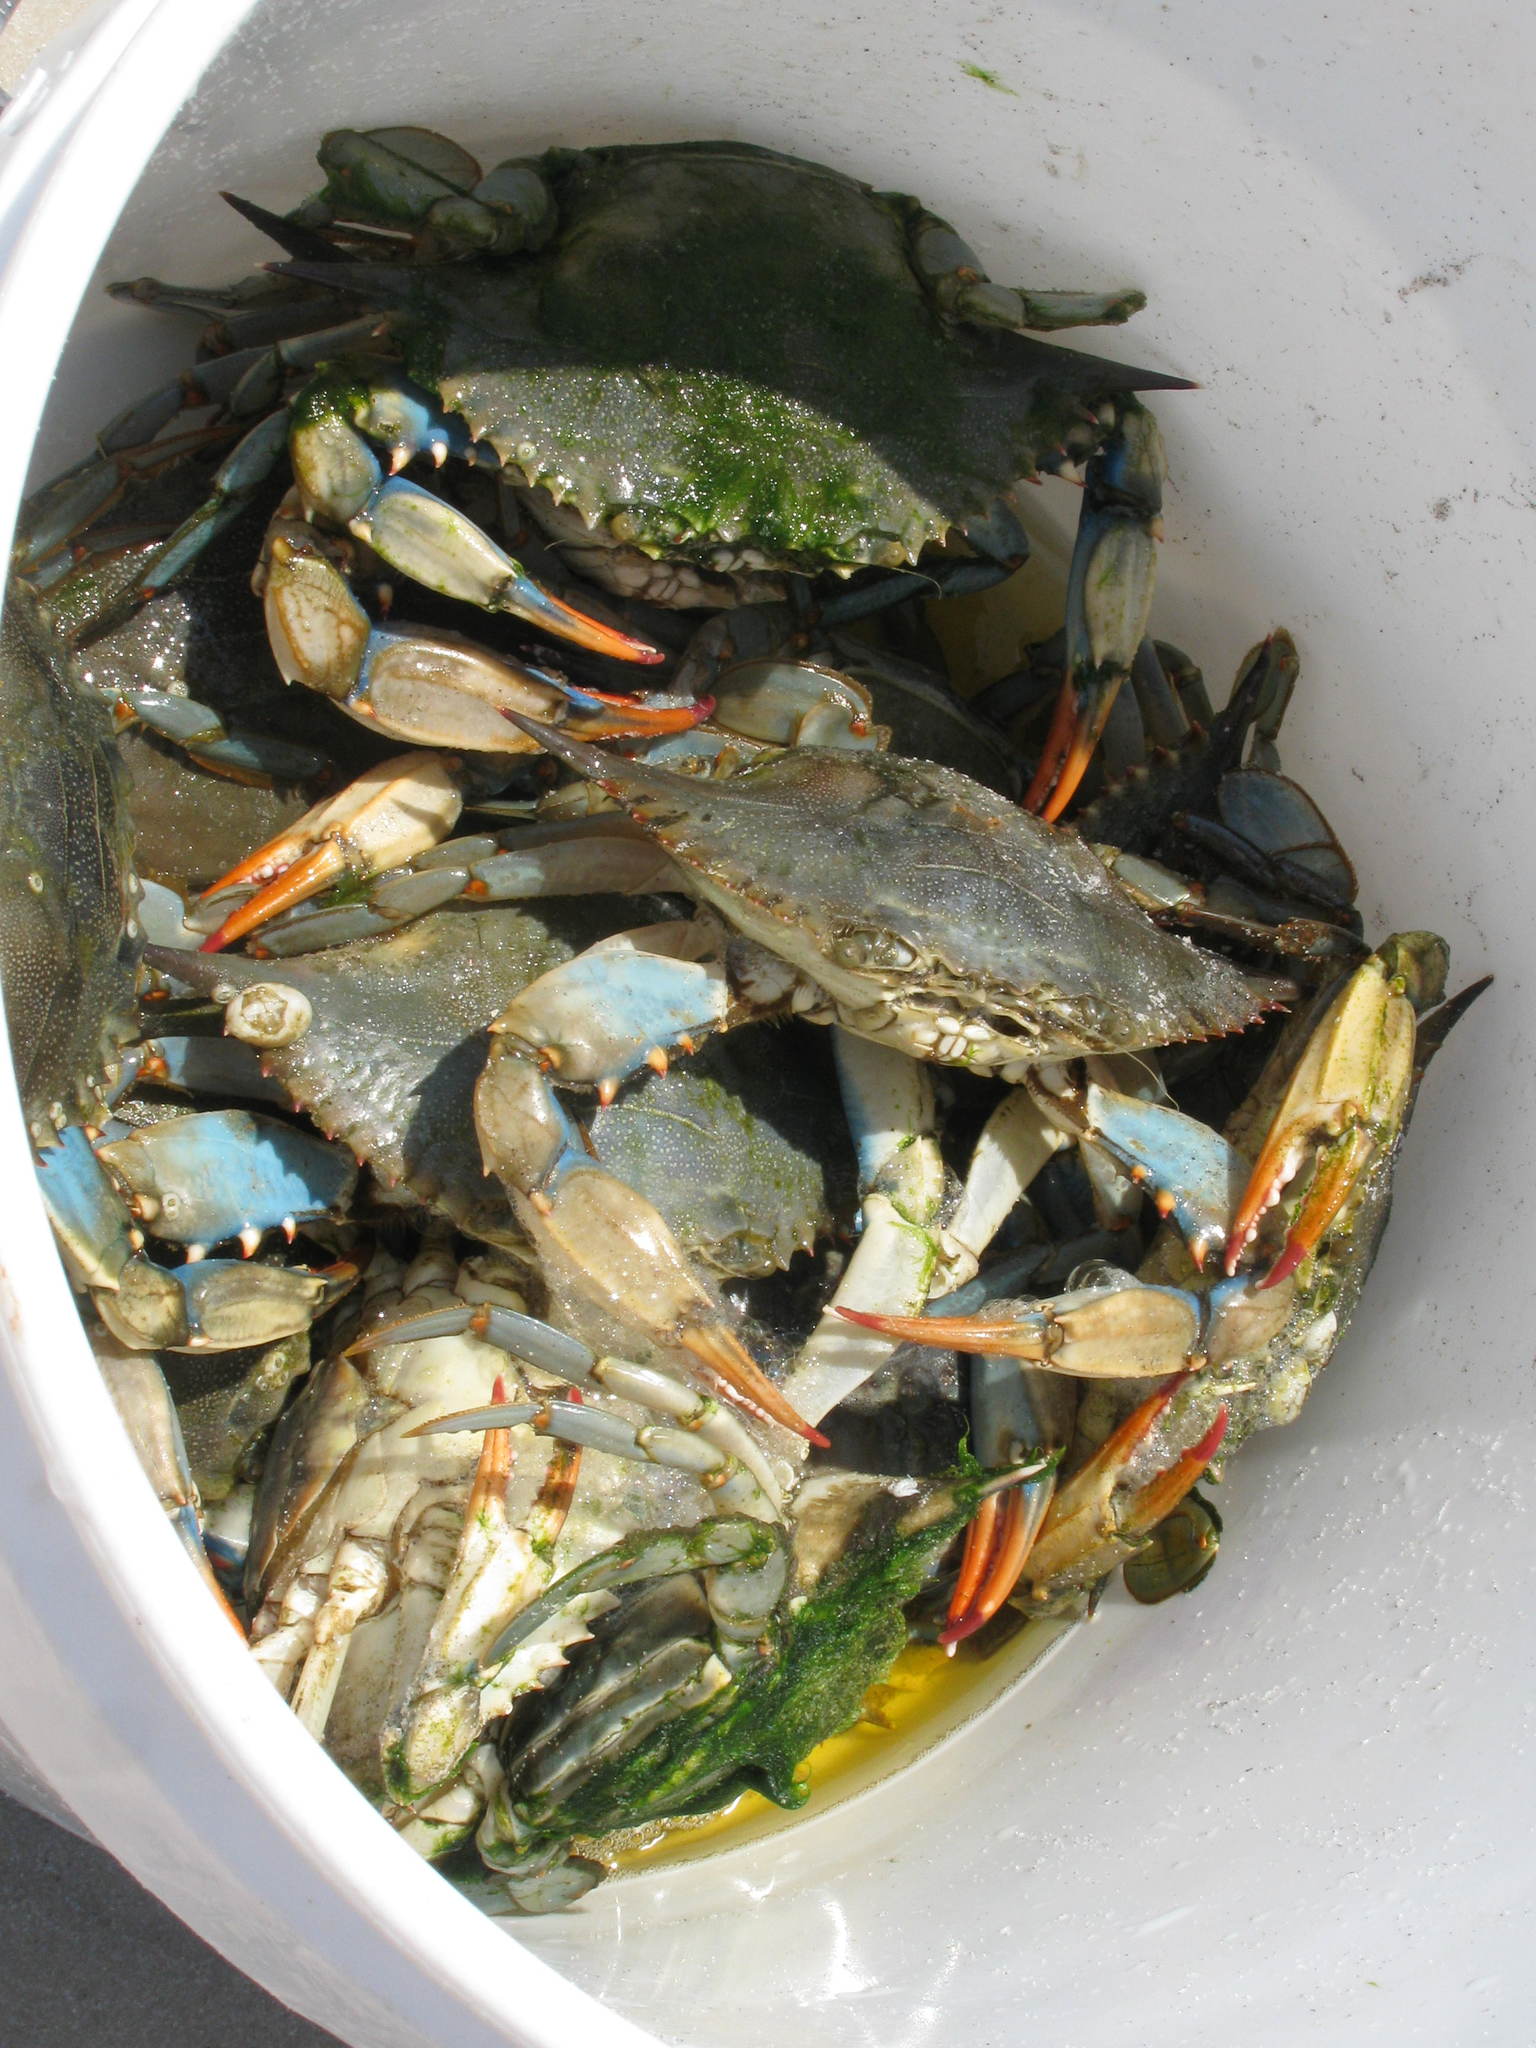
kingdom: Animalia
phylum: Arthropoda
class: Malacostraca
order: Decapoda
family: Portunidae
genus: Callinectes
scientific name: Callinectes sapidus
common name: Blue crab
